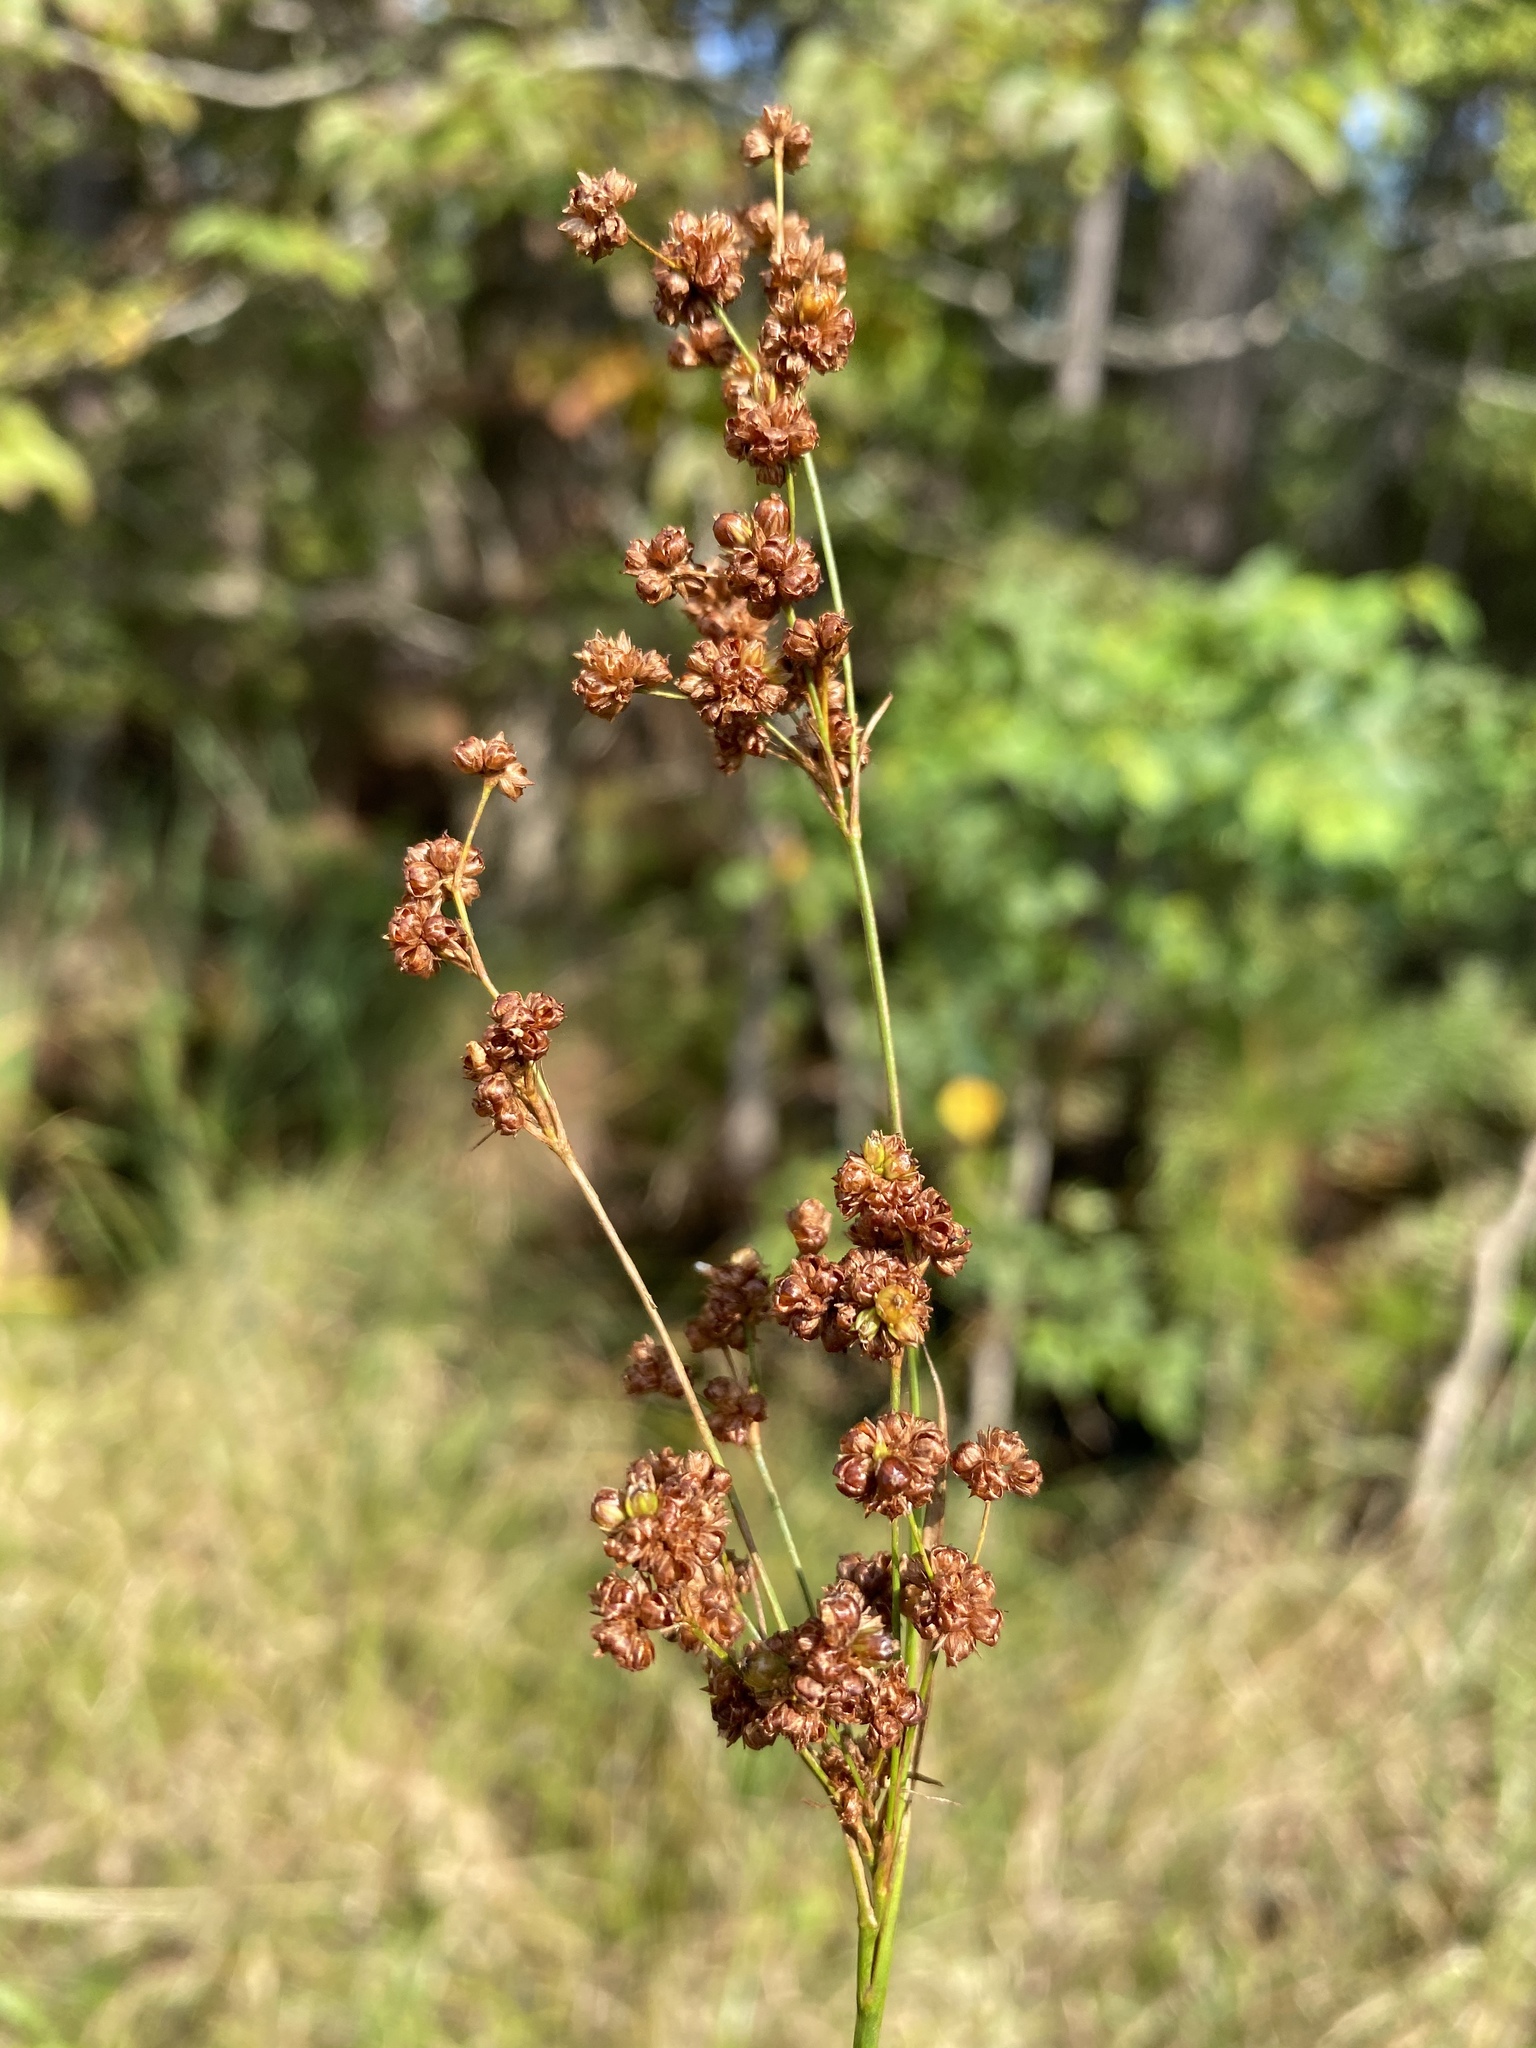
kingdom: Plantae
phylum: Tracheophyta
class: Liliopsida
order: Poales
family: Juncaceae
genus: Juncus
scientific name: Juncus biflorus
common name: Two-flowered rush
